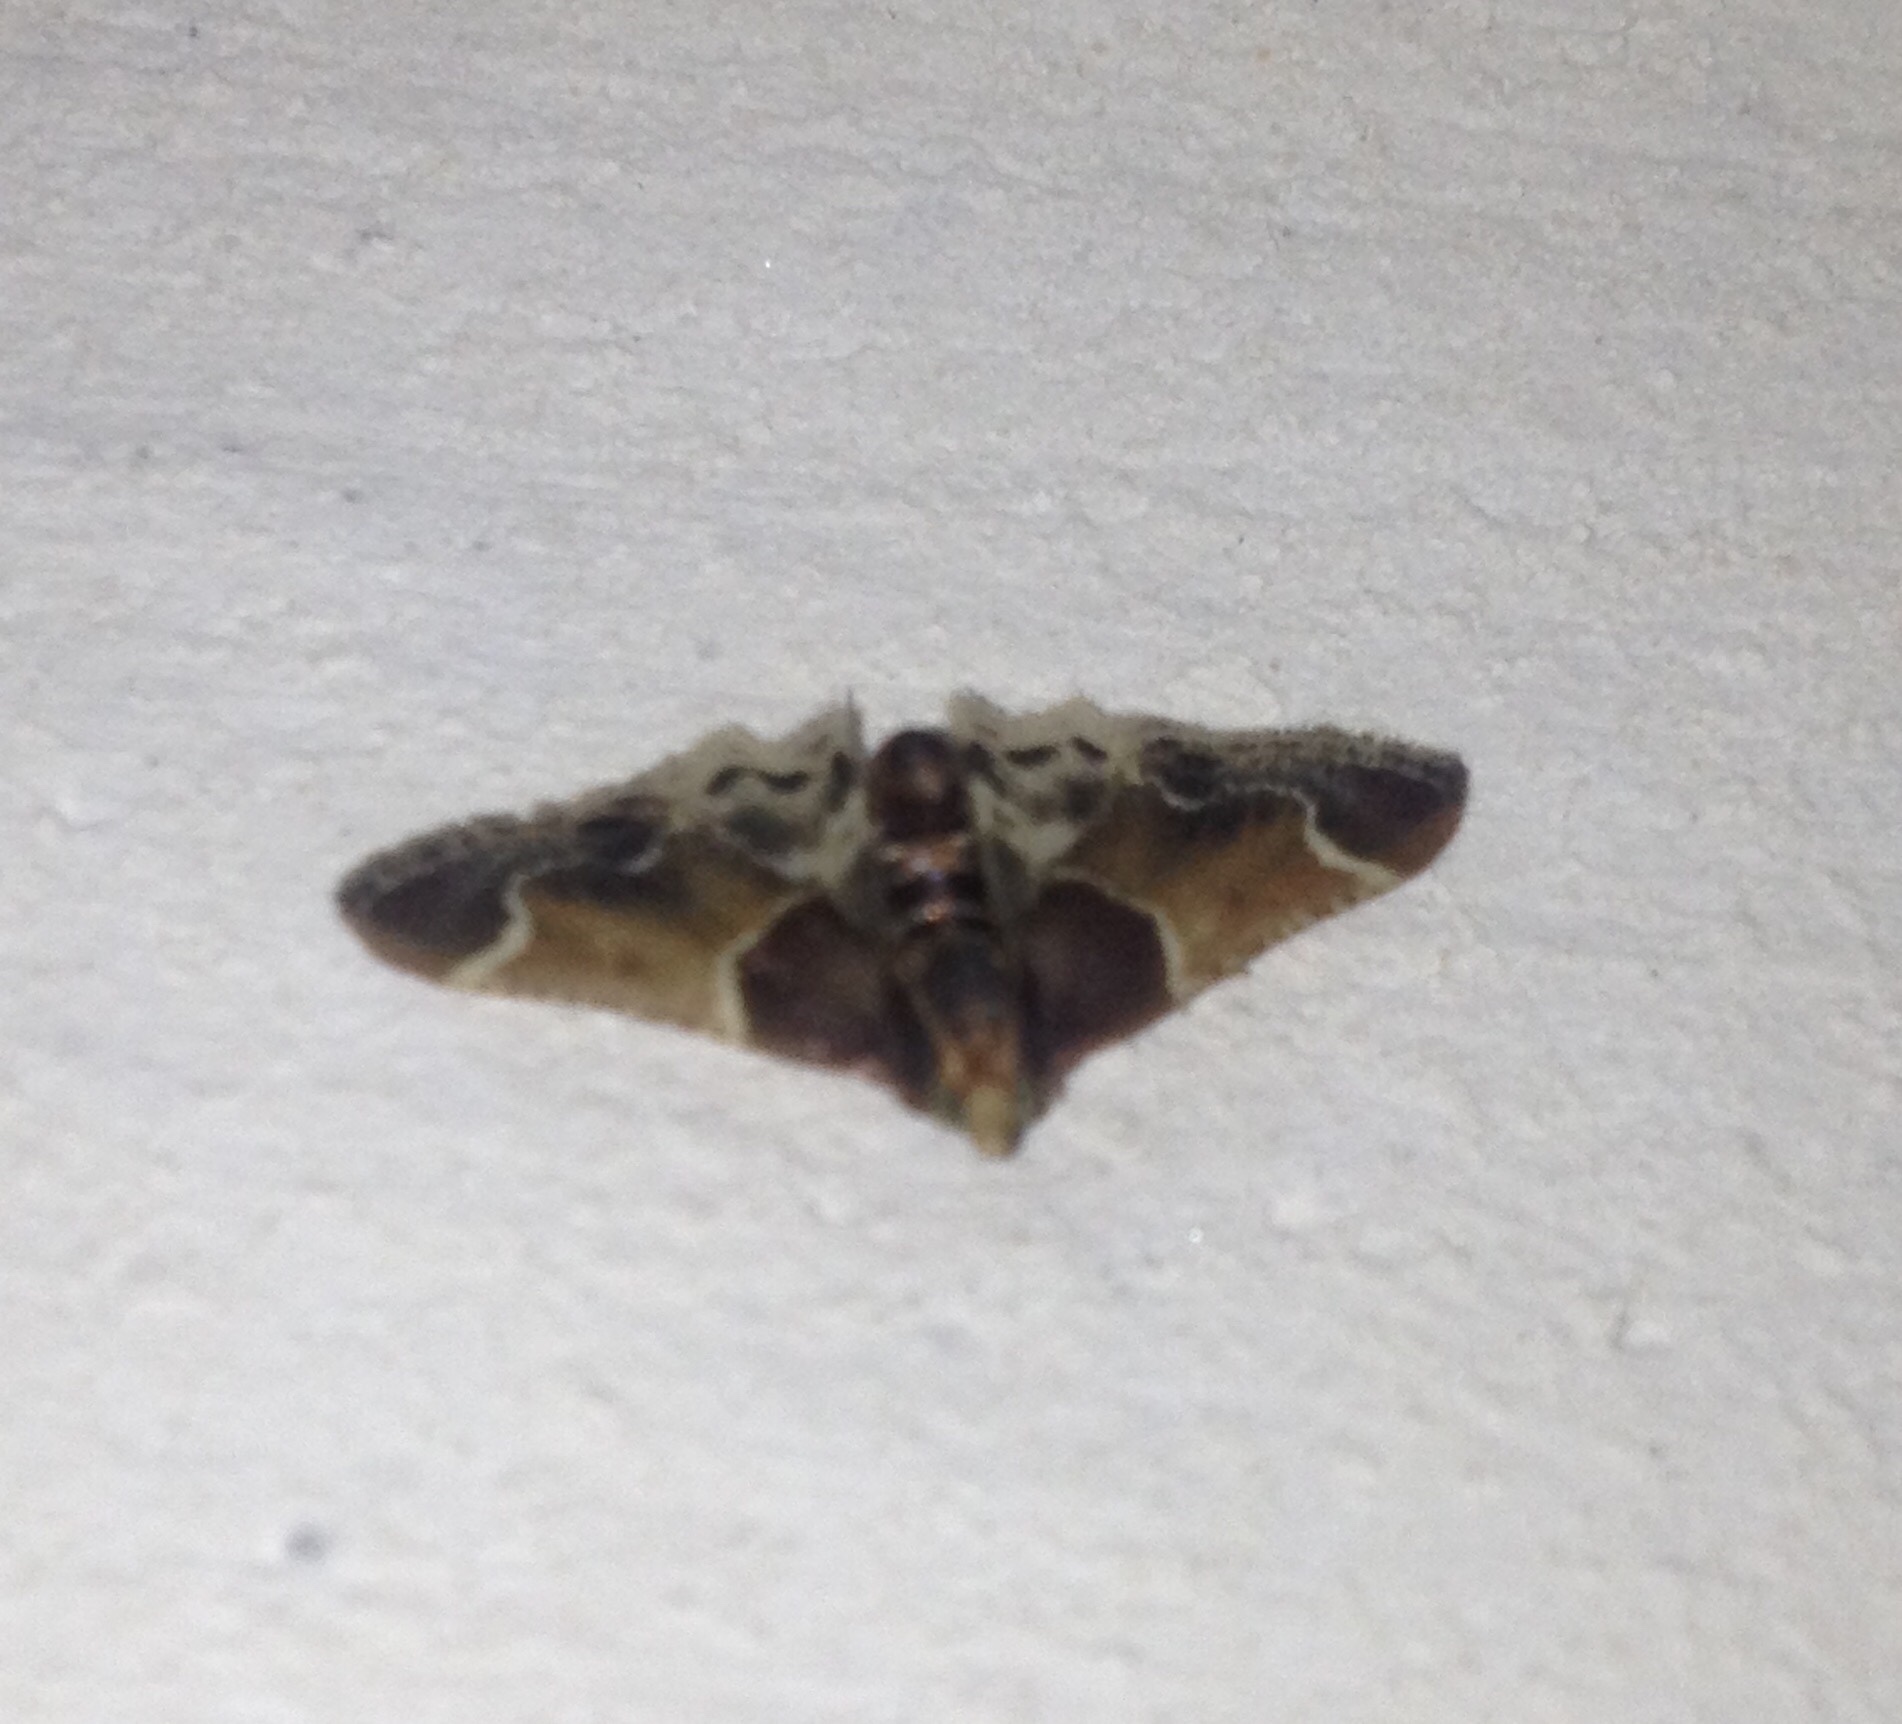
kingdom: Animalia
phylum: Arthropoda
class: Insecta
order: Lepidoptera
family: Pyralidae
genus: Pyralis
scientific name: Pyralis farinalis
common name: Meal moth
